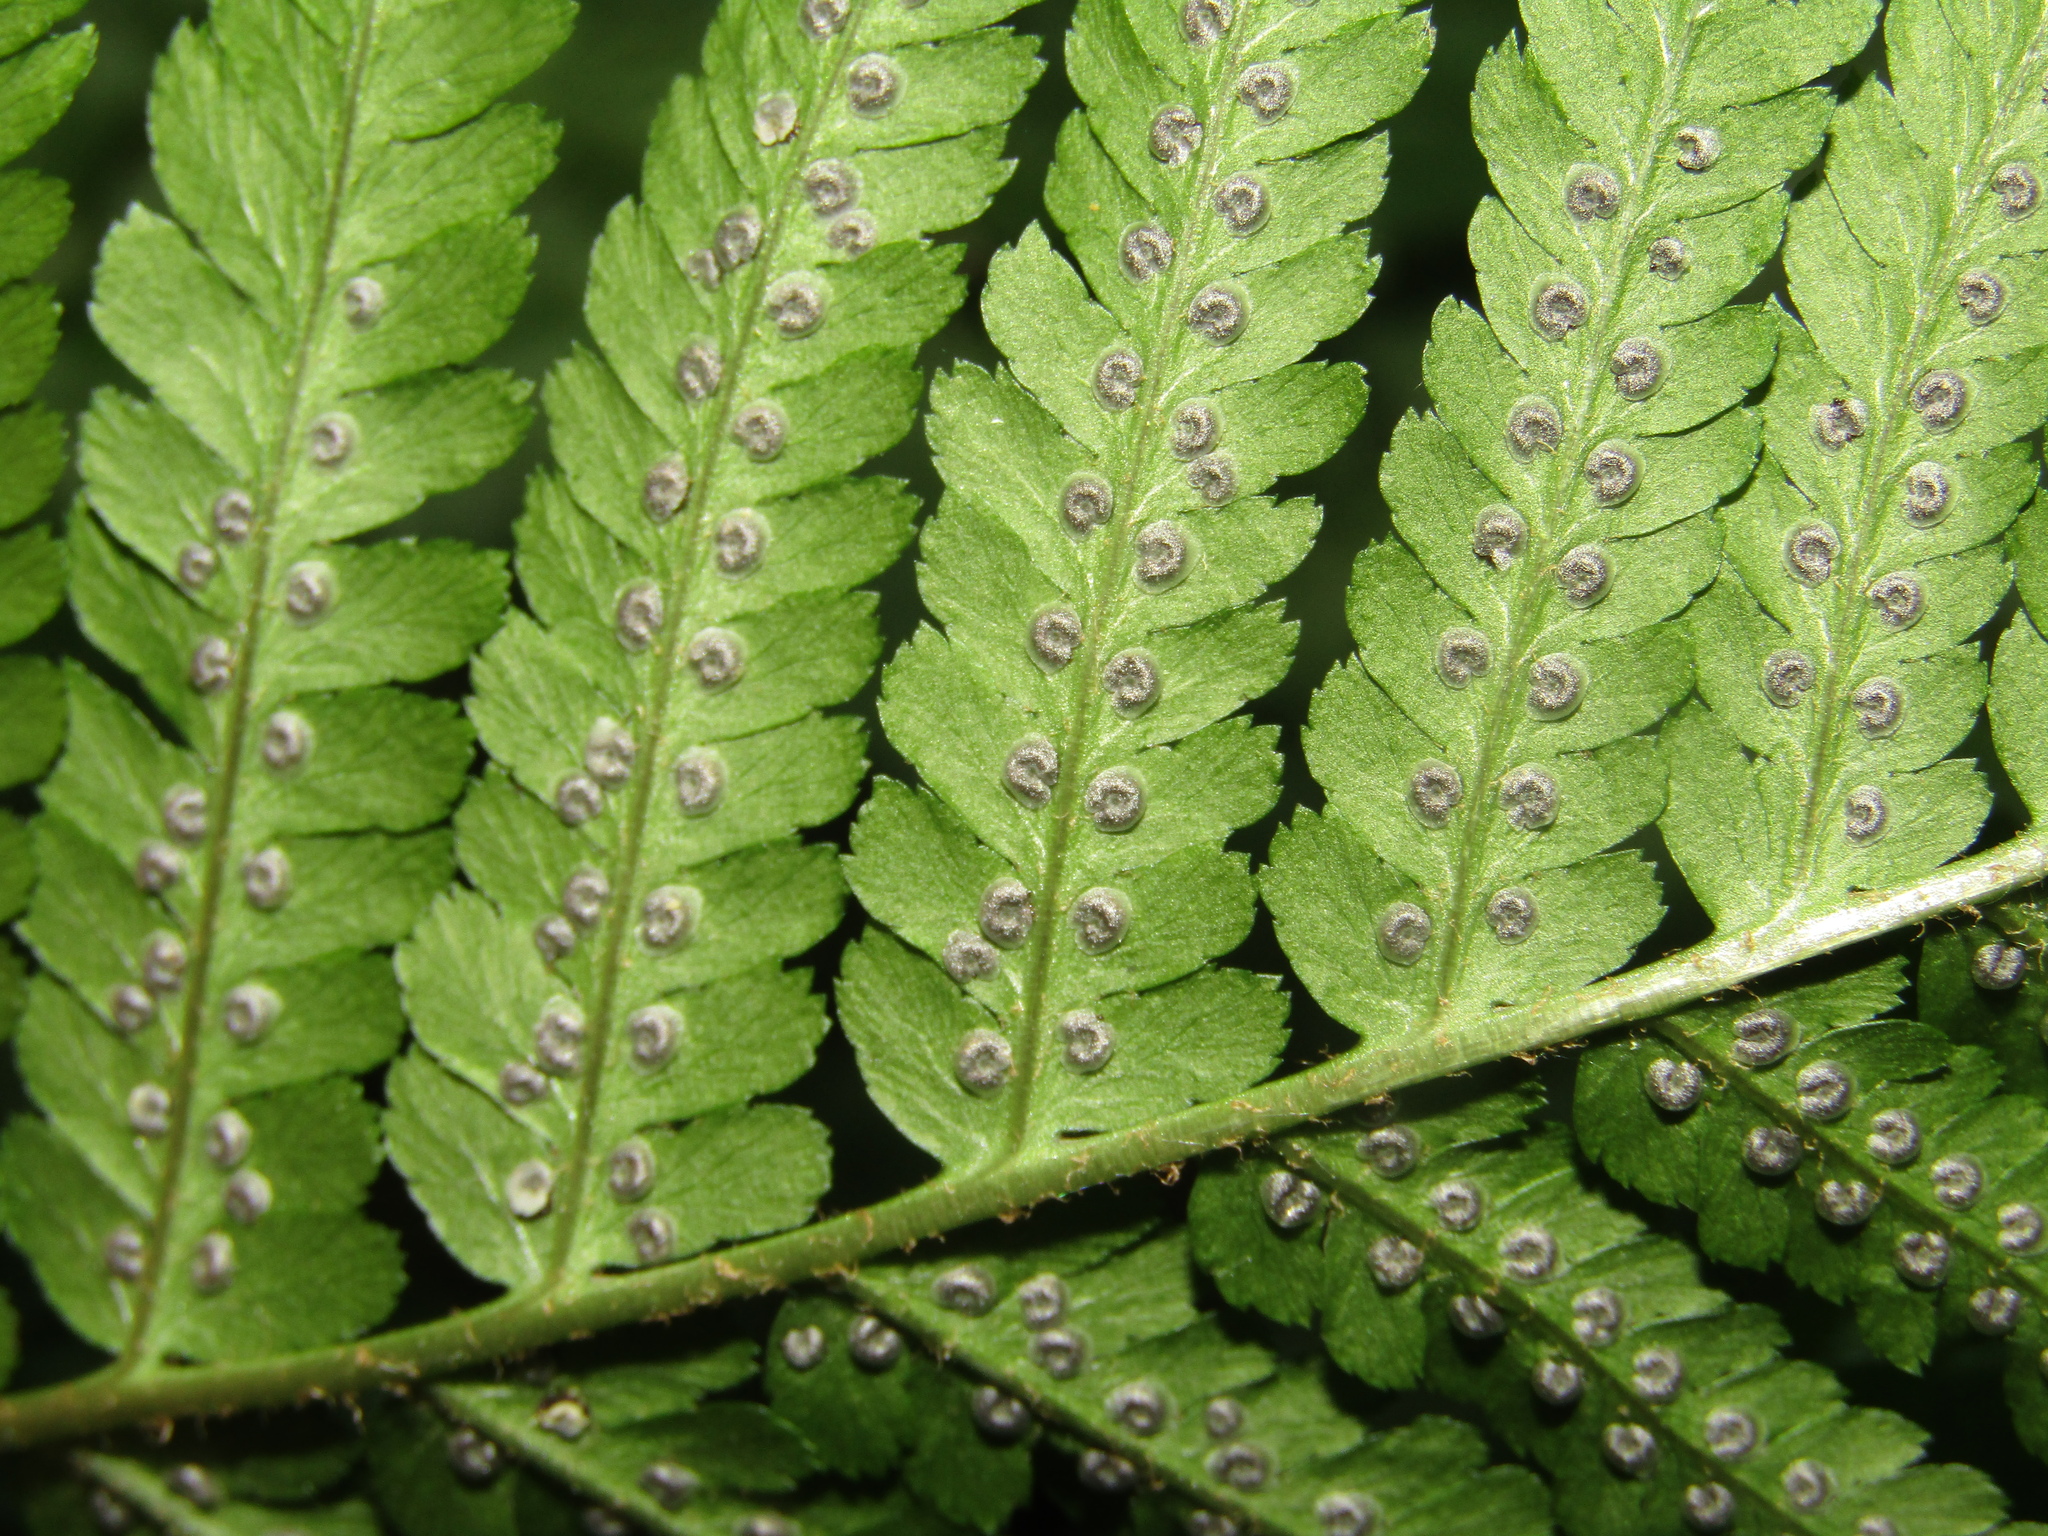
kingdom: Plantae
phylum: Tracheophyta
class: Polypodiopsida
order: Polypodiales
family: Dryopteridaceae
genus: Dryopteris
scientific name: Dryopteris filix-mas
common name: Male fern
